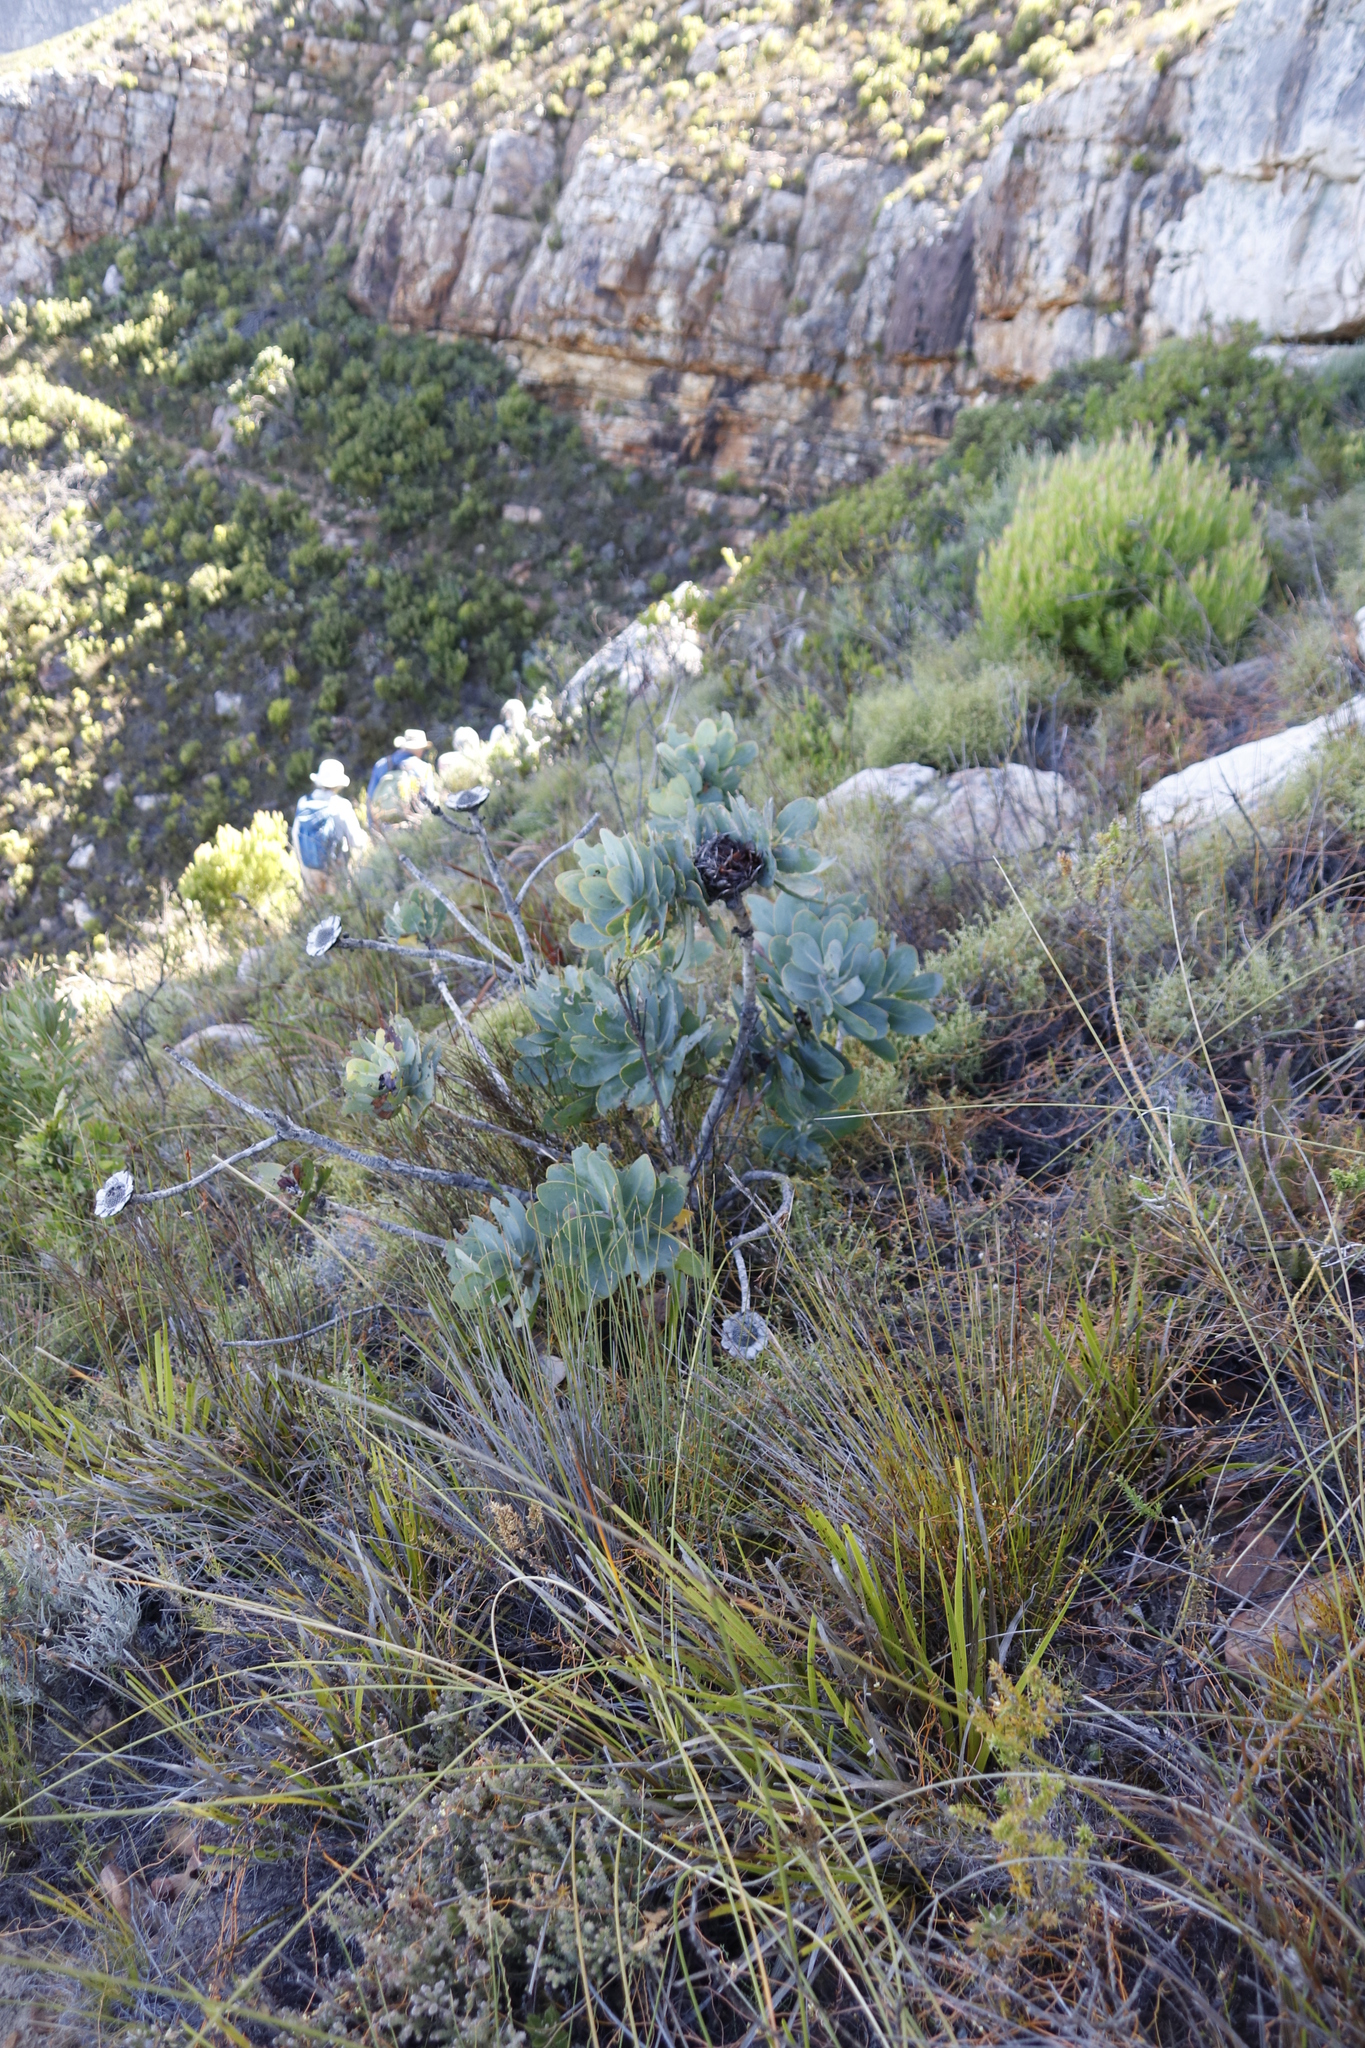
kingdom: Plantae
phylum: Tracheophyta
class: Magnoliopsida
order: Proteales
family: Proteaceae
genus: Protea
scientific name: Protea nitida
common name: Tree protea
